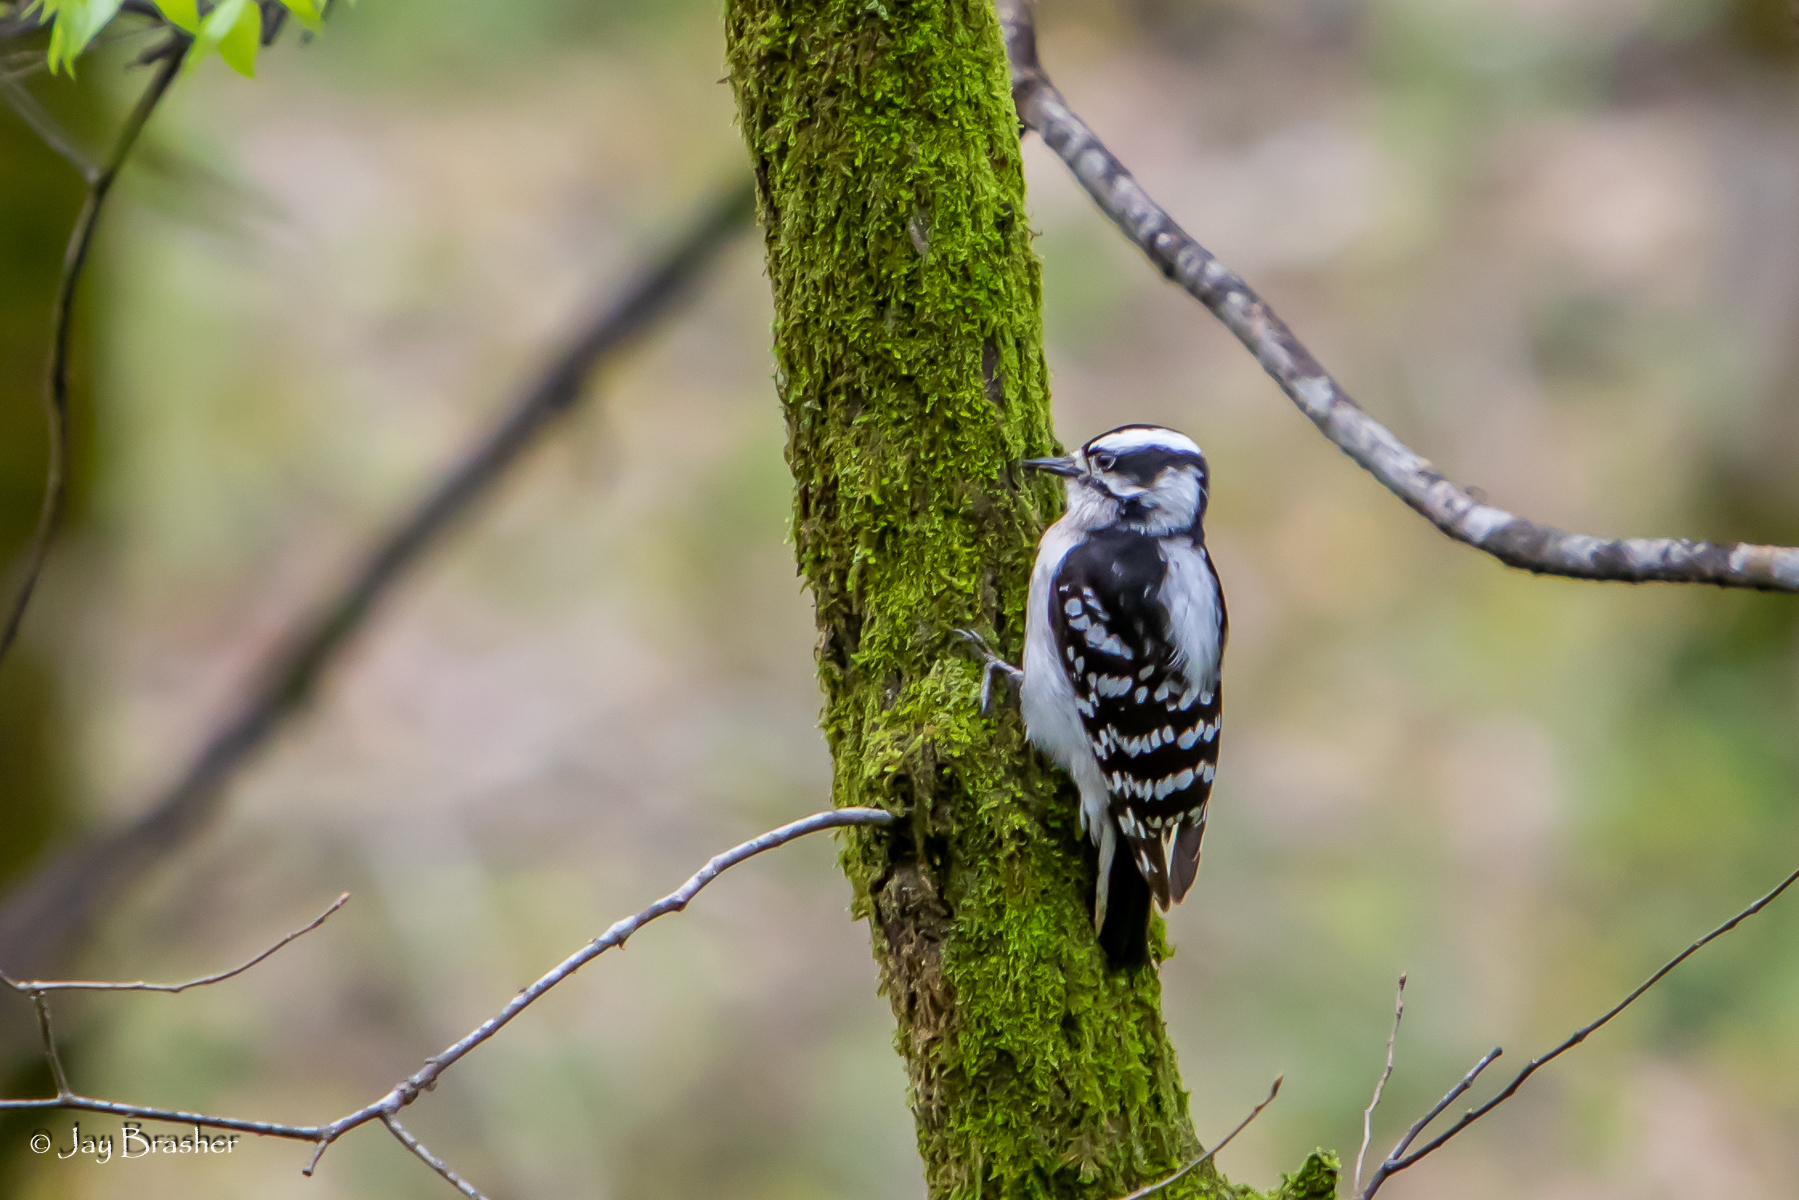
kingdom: Animalia
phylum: Chordata
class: Aves
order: Piciformes
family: Picidae
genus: Dryobates
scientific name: Dryobates pubescens
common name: Downy woodpecker
